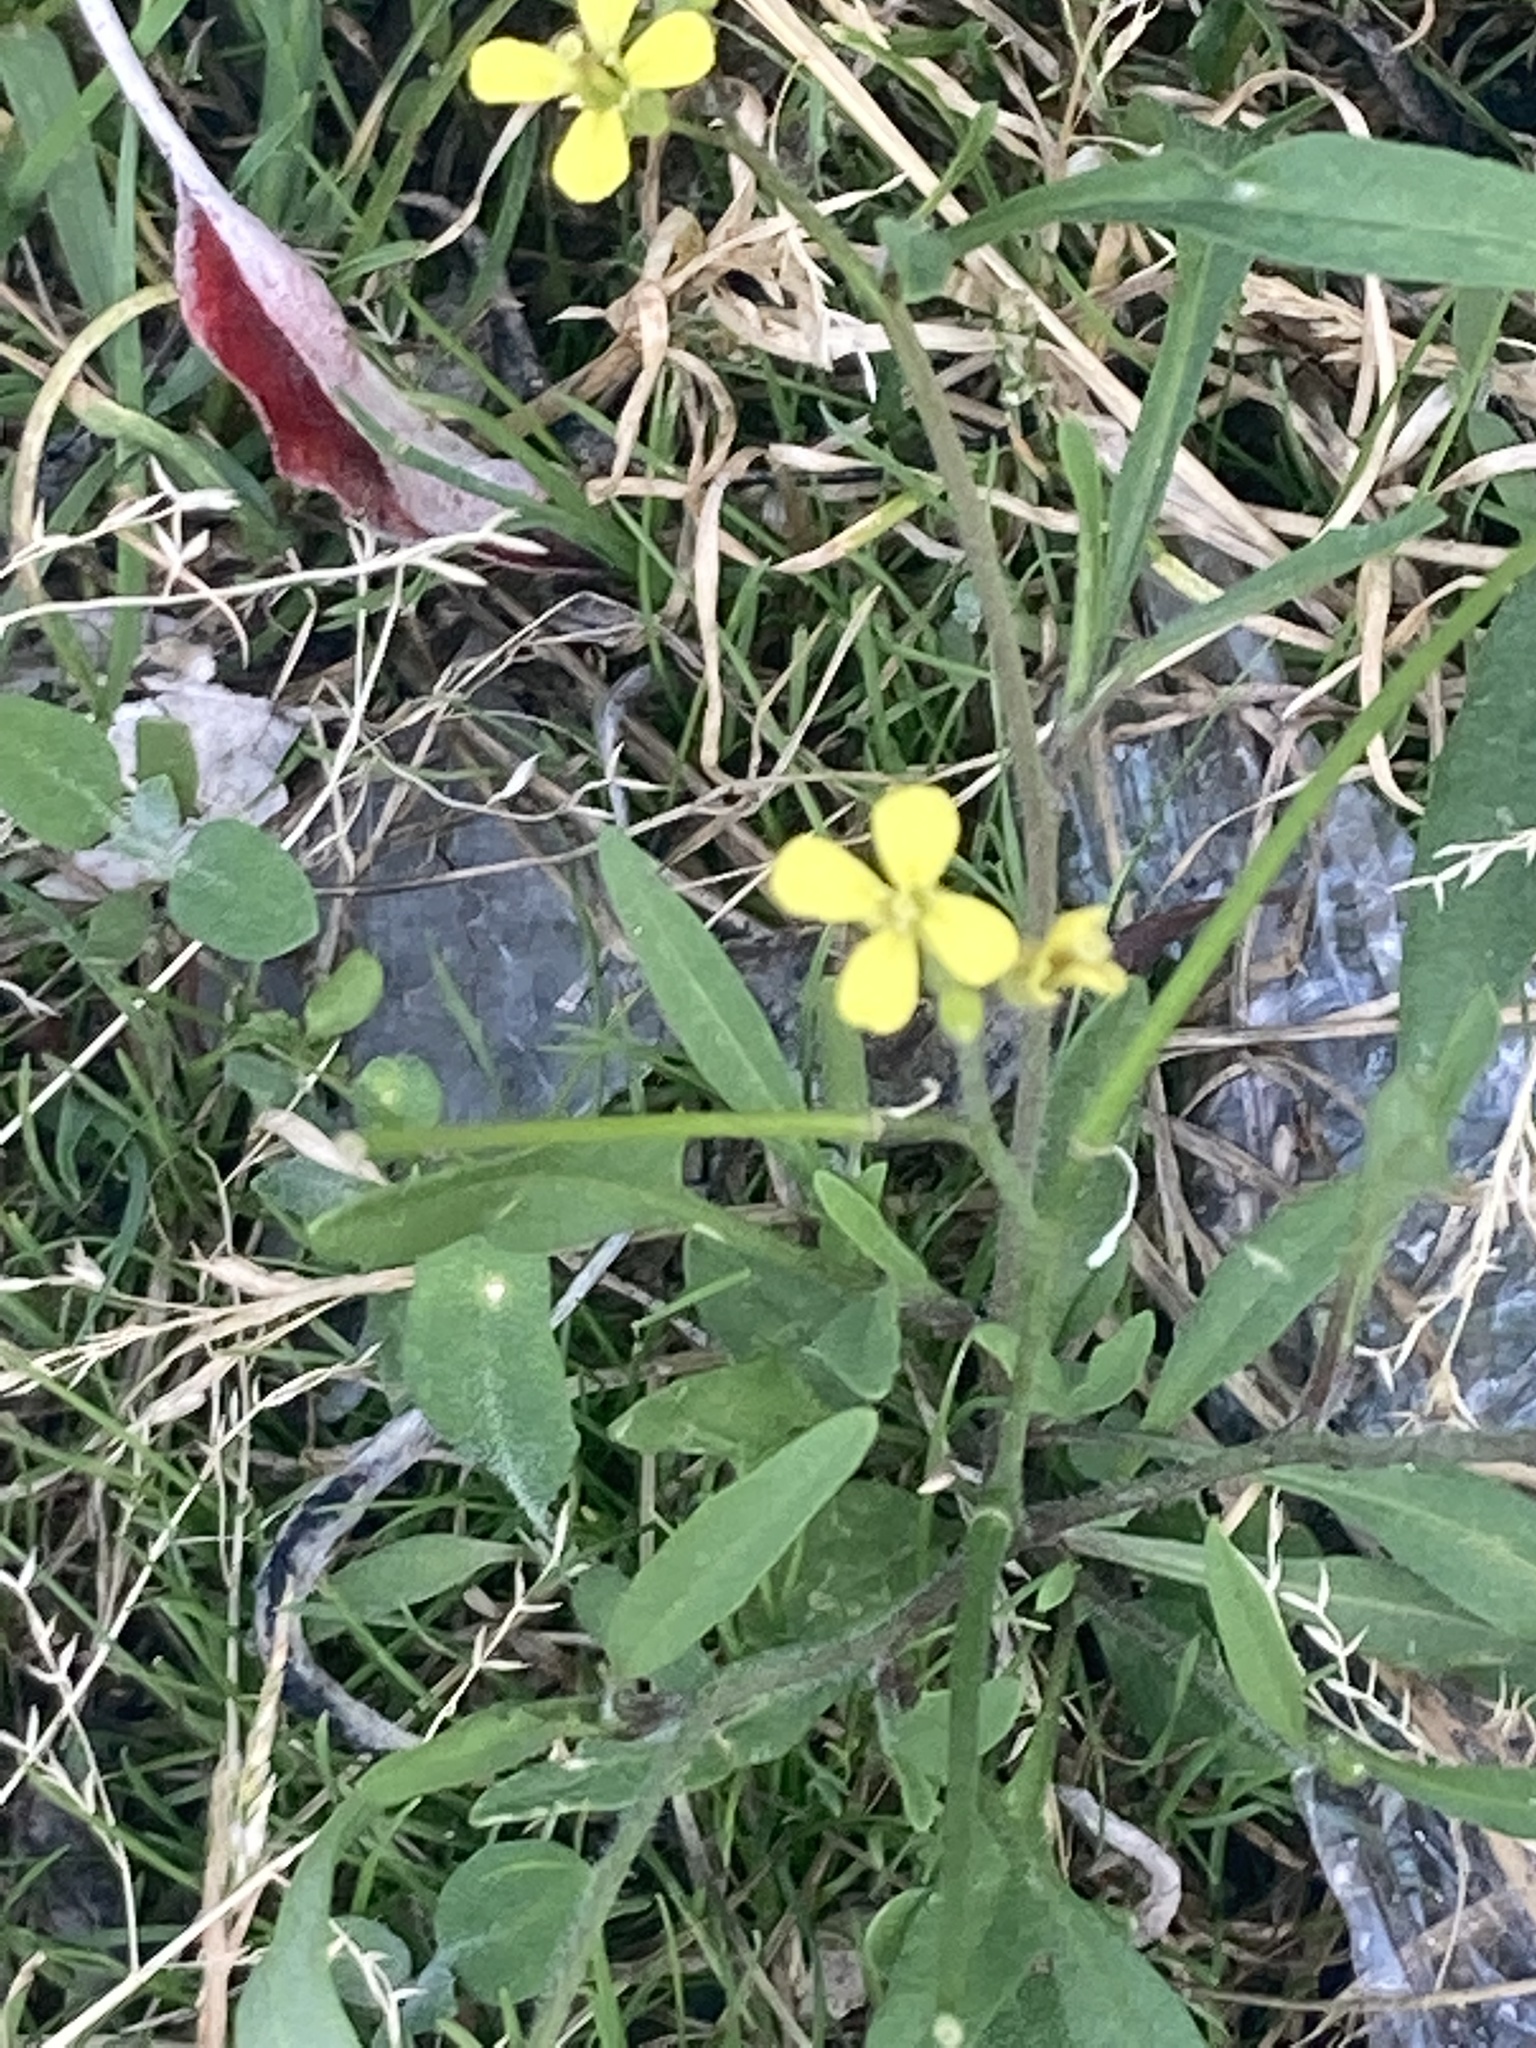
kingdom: Plantae
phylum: Tracheophyta
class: Magnoliopsida
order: Brassicales
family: Brassicaceae
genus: Sisymbrium
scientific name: Sisymbrium orientale
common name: Eastern rocket
